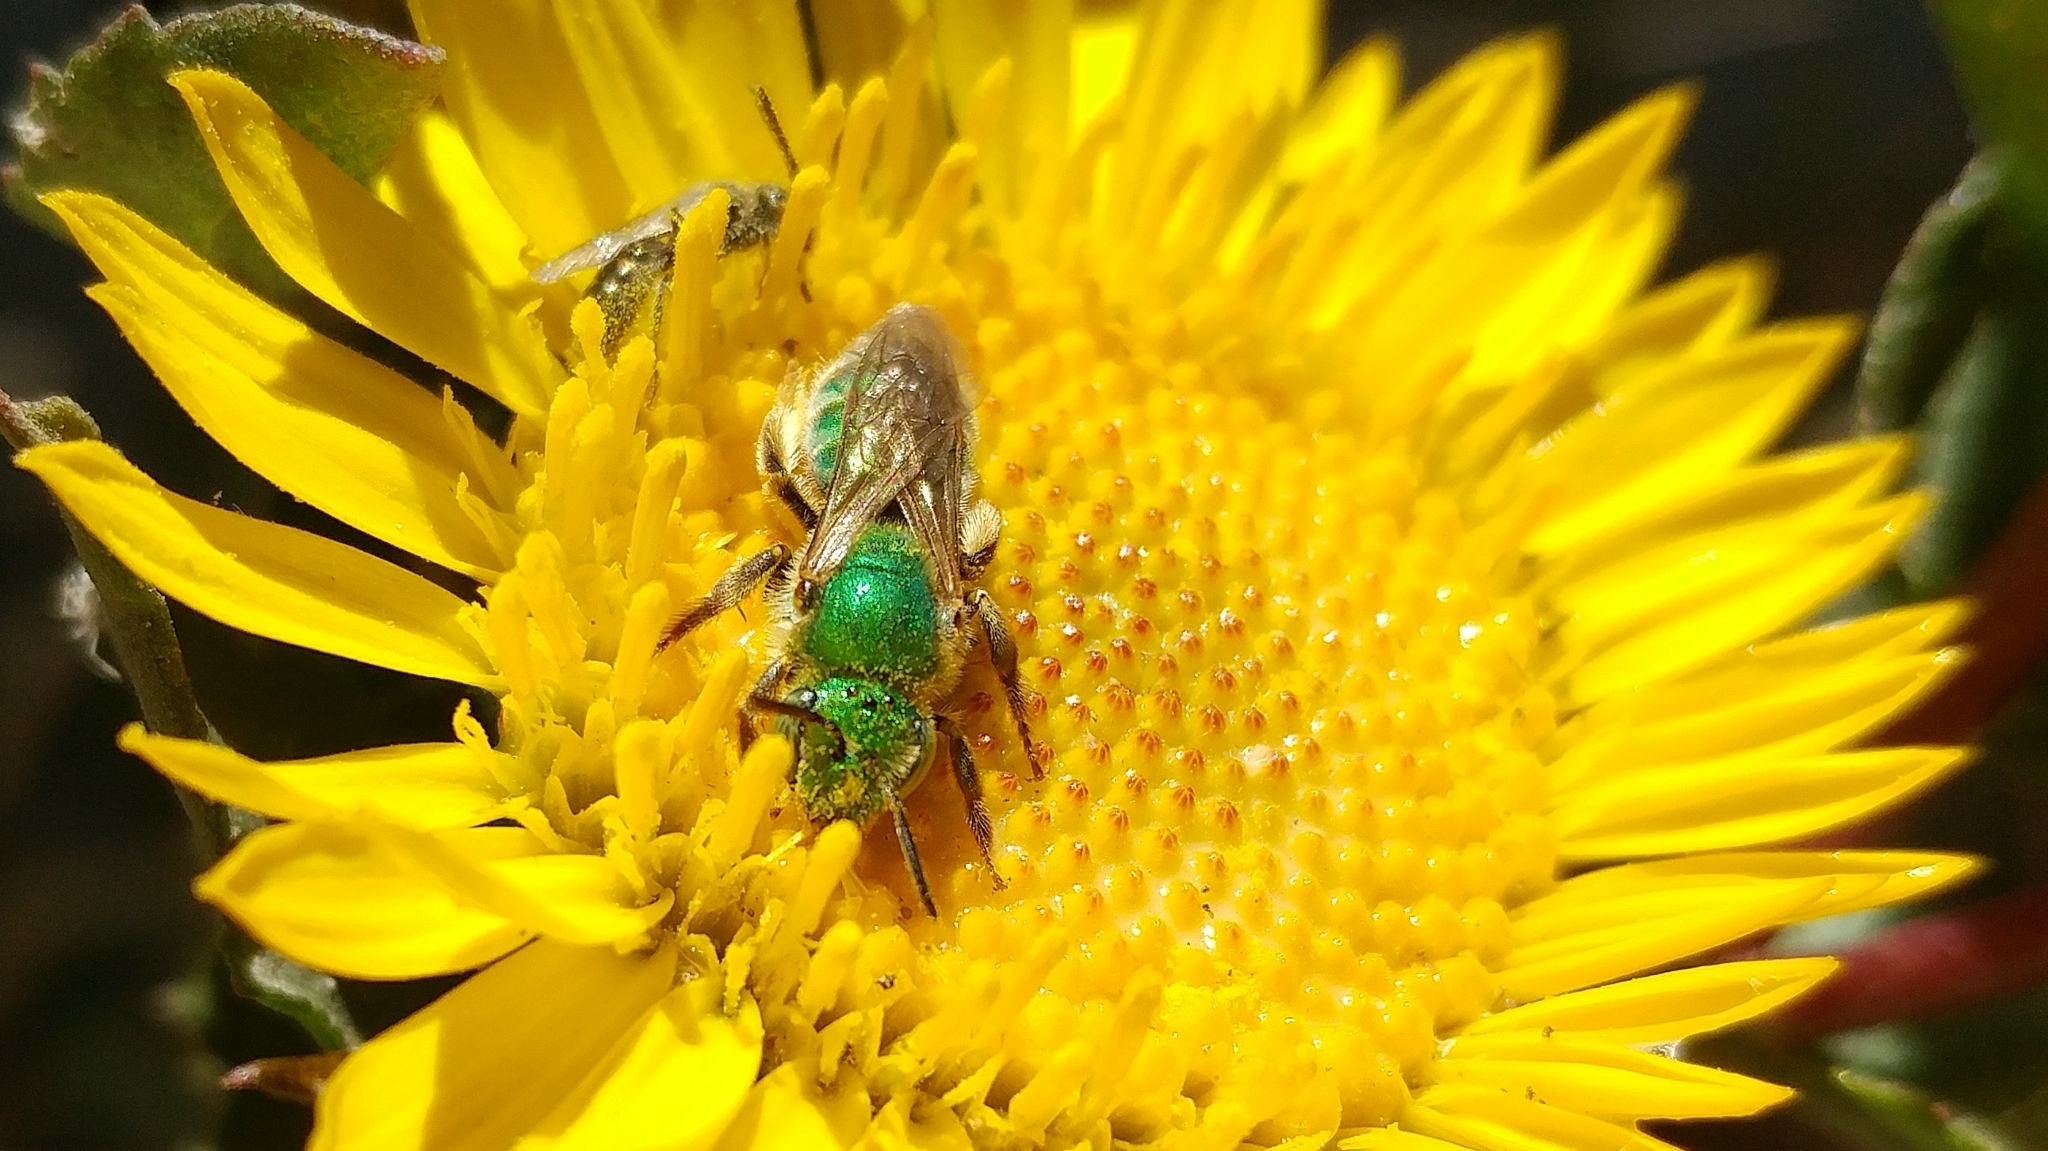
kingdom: Animalia
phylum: Arthropoda
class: Insecta
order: Hymenoptera
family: Halictidae
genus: Agapostemon
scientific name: Agapostemon texanus
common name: Texas striped sweat bee
